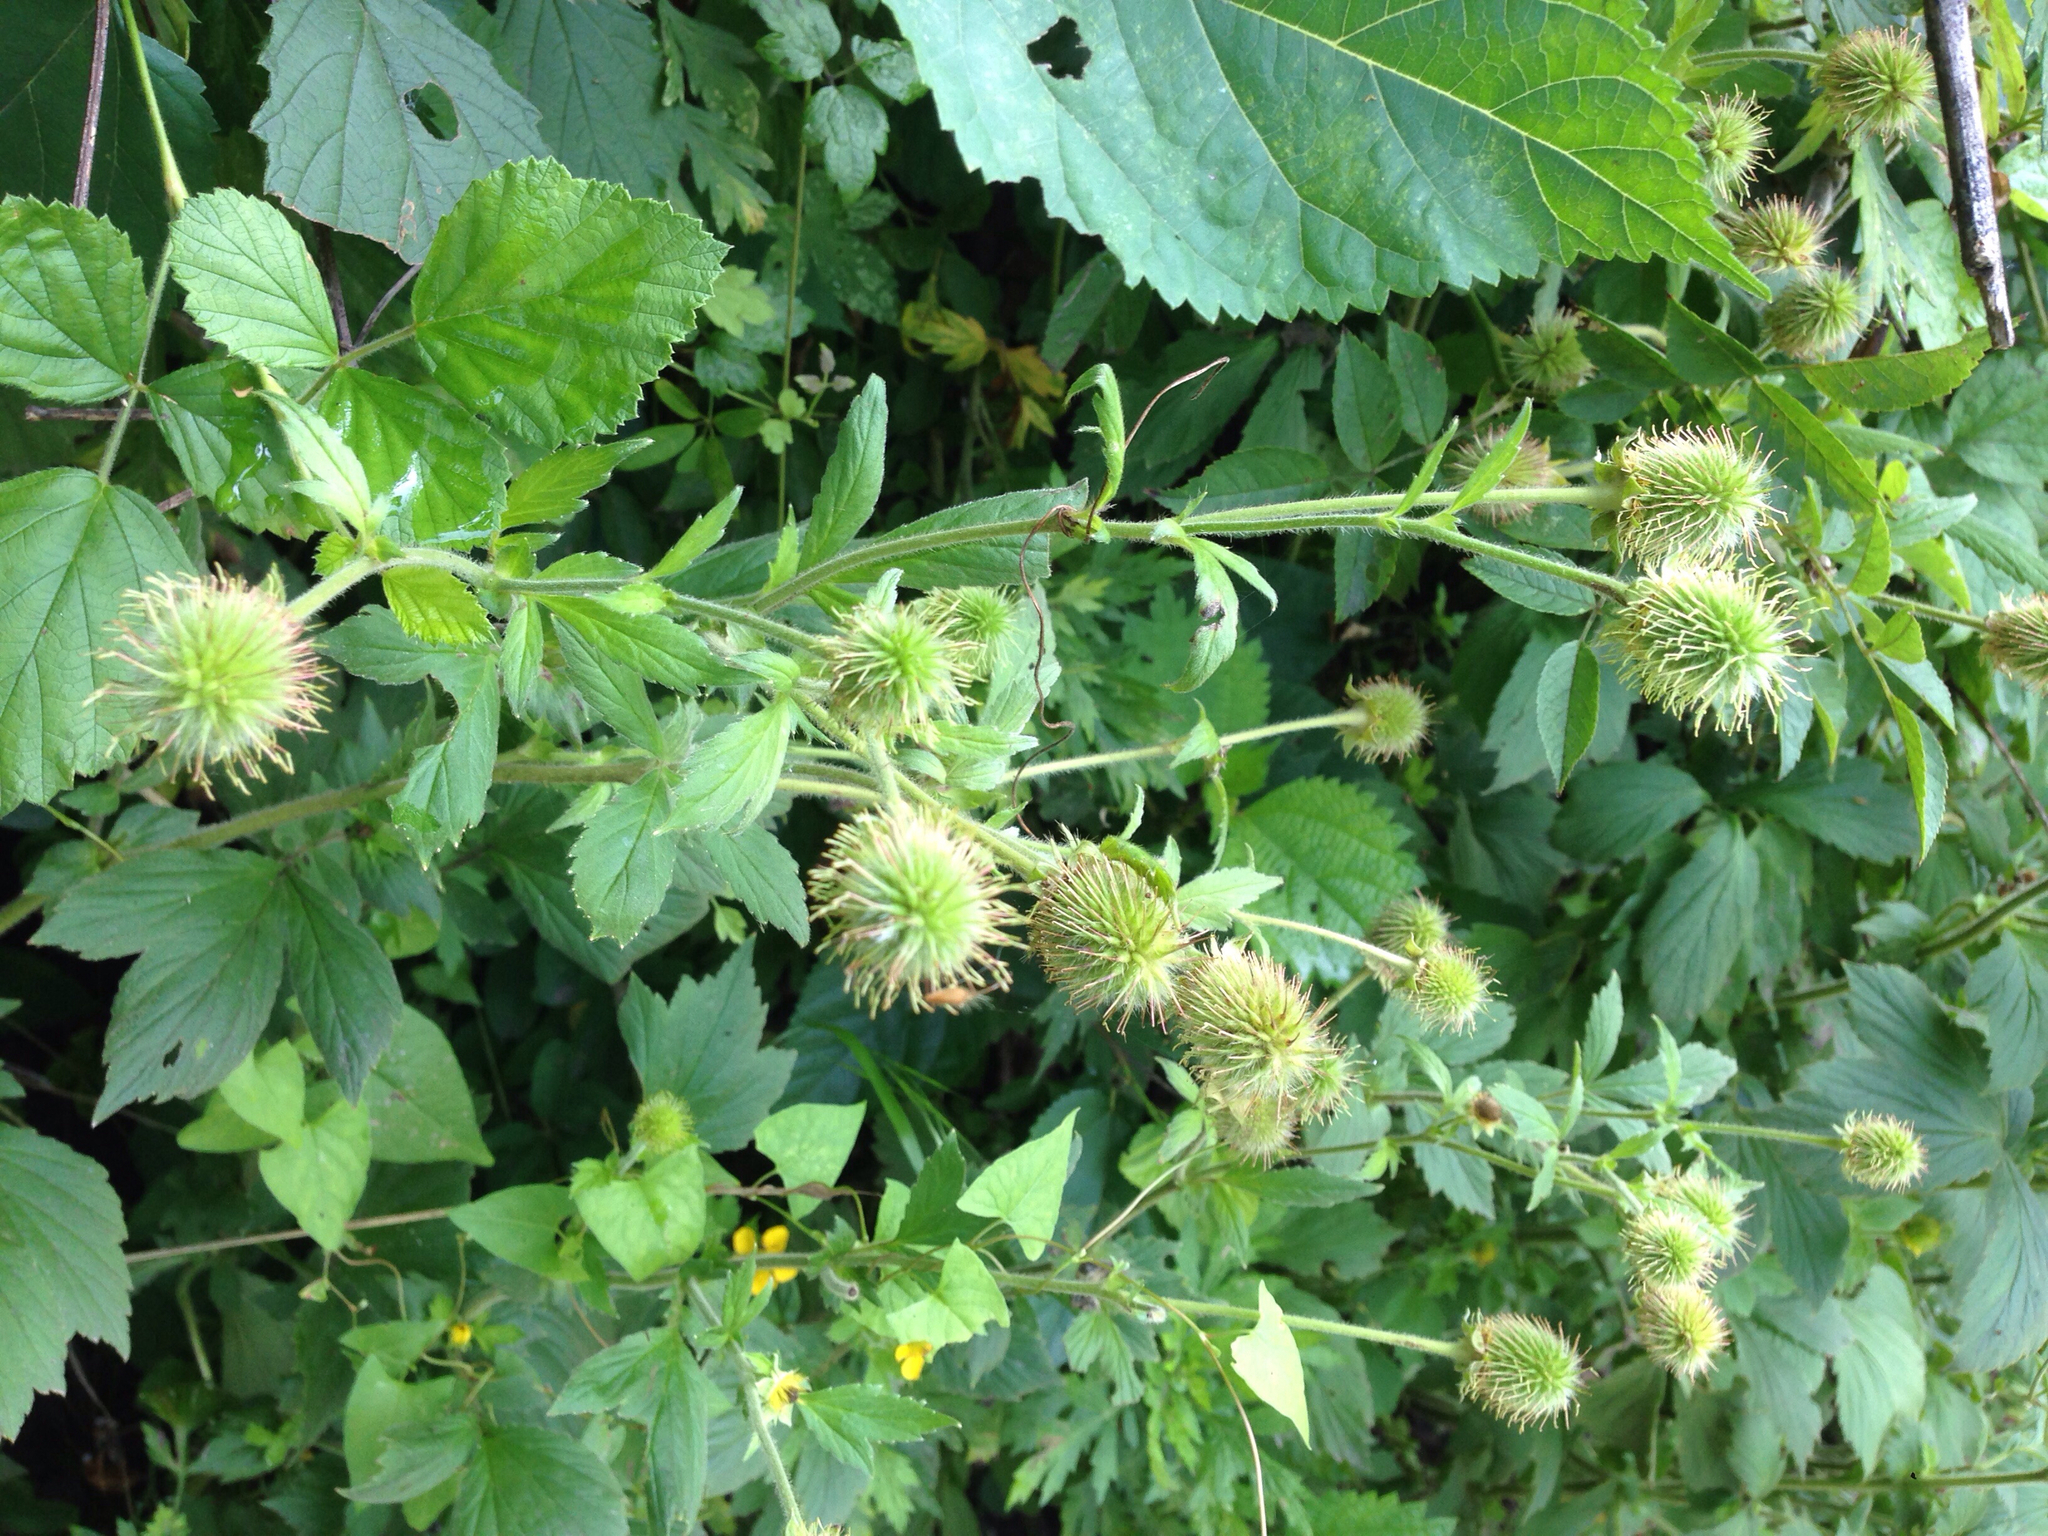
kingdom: Plantae
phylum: Tracheophyta
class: Magnoliopsida
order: Rosales
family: Rosaceae
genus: Geum
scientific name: Geum aleppicum
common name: Yellow avens
